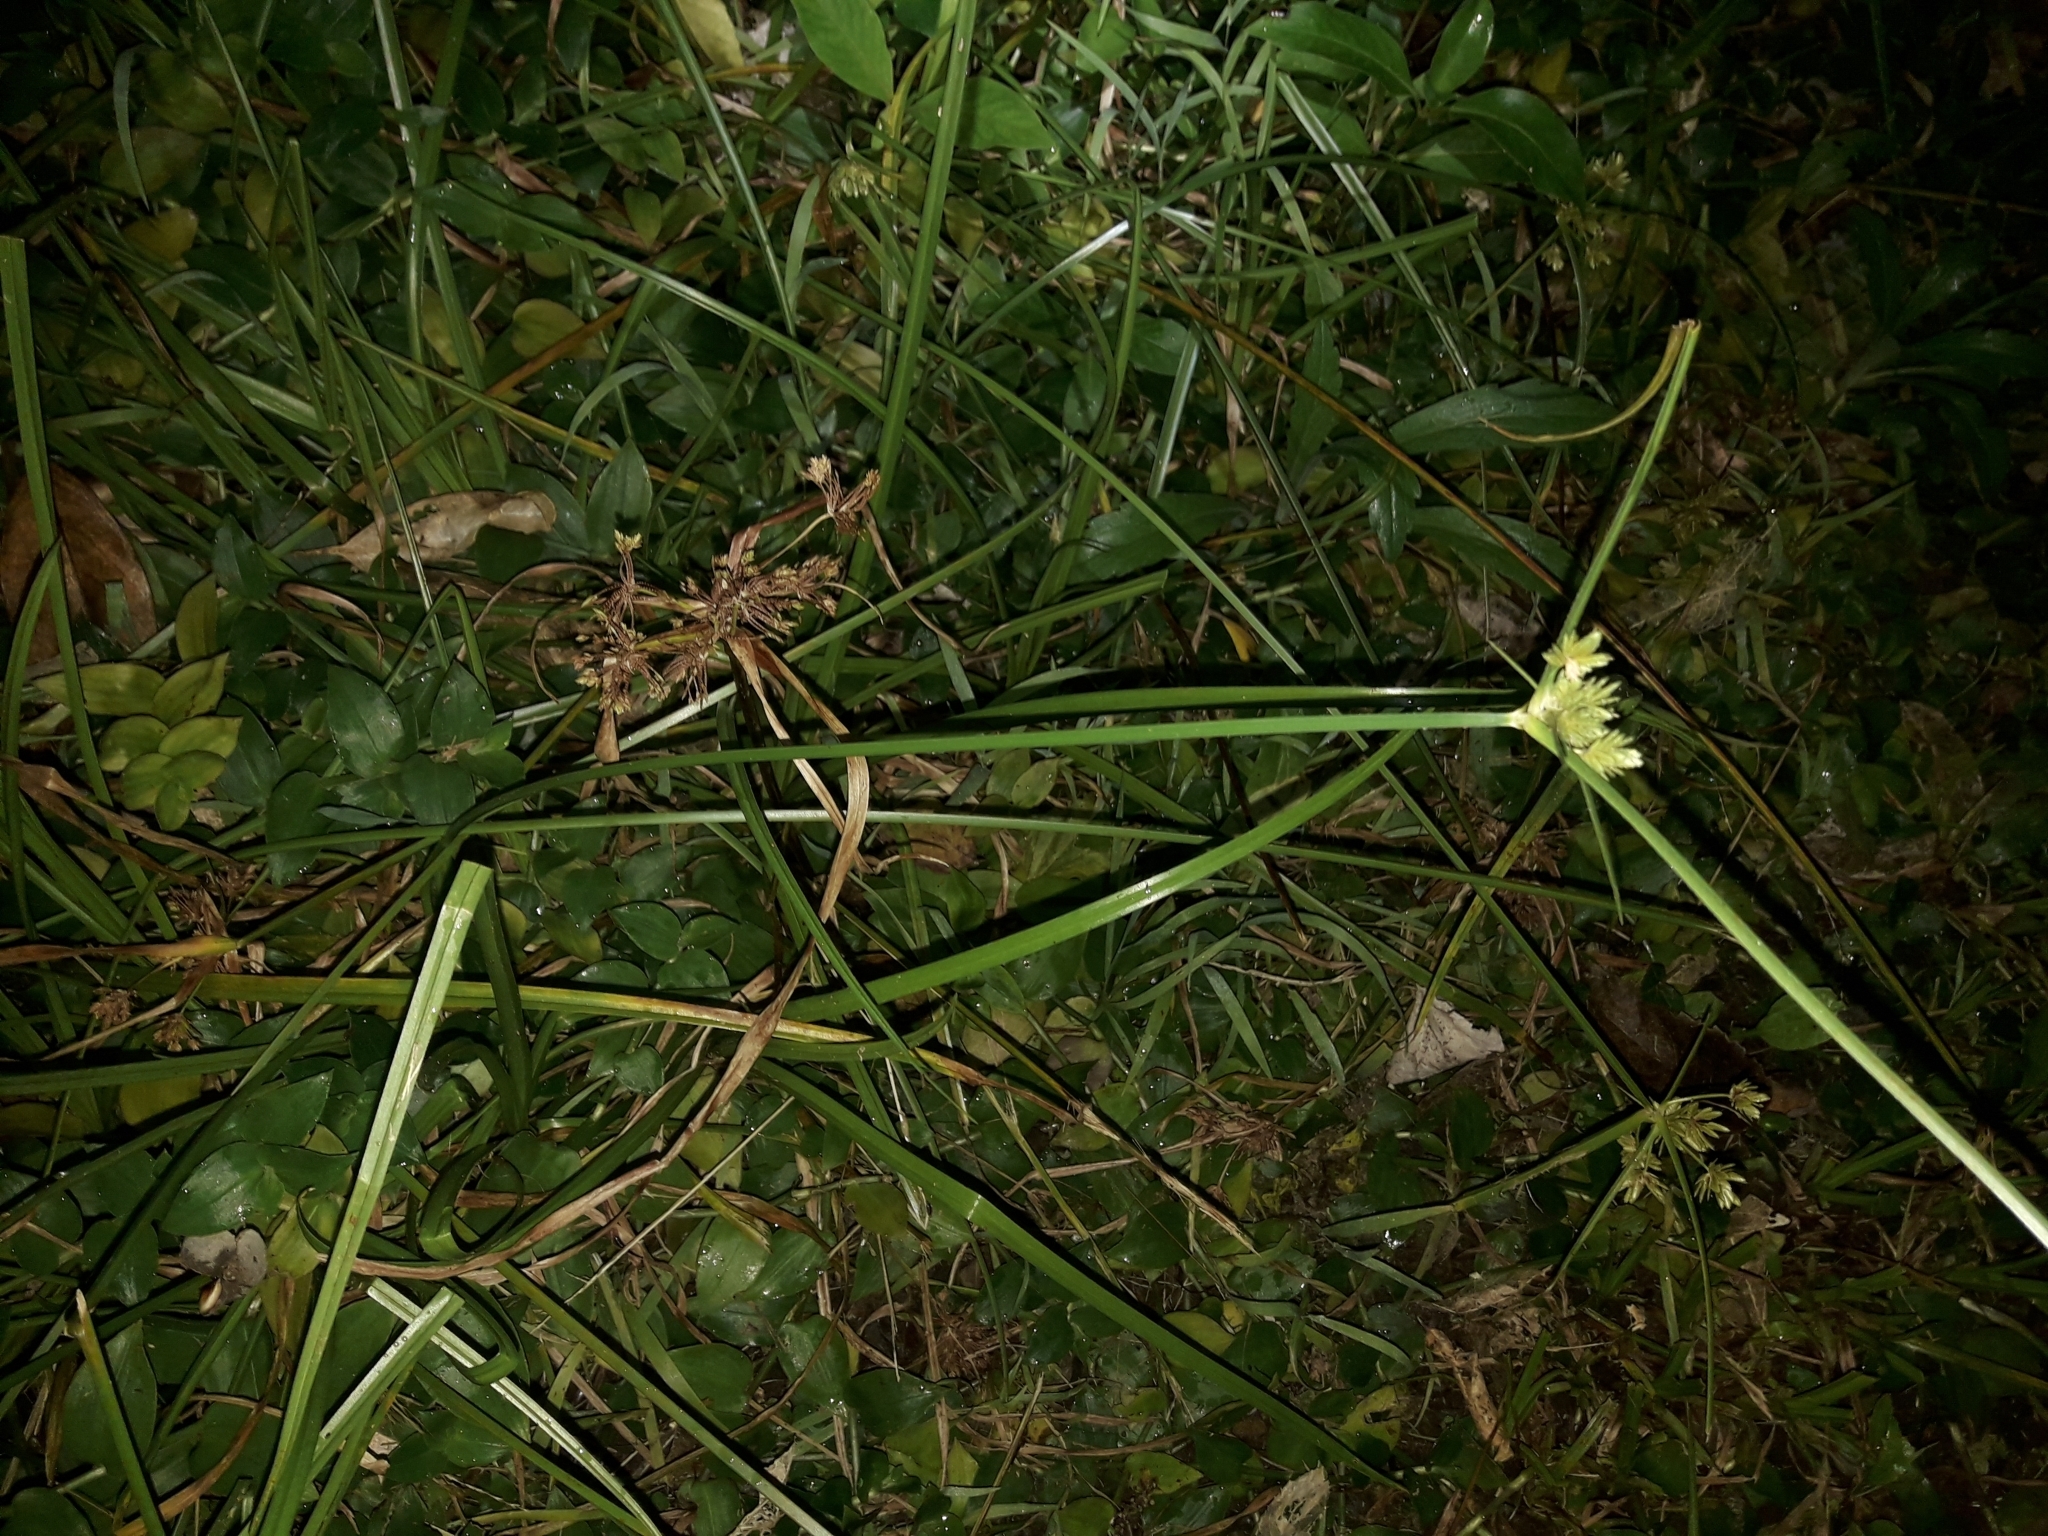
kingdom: Plantae
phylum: Tracheophyta
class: Liliopsida
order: Poales
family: Cyperaceae
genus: Cyperus
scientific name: Cyperus eragrostis
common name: Tall flatsedge
